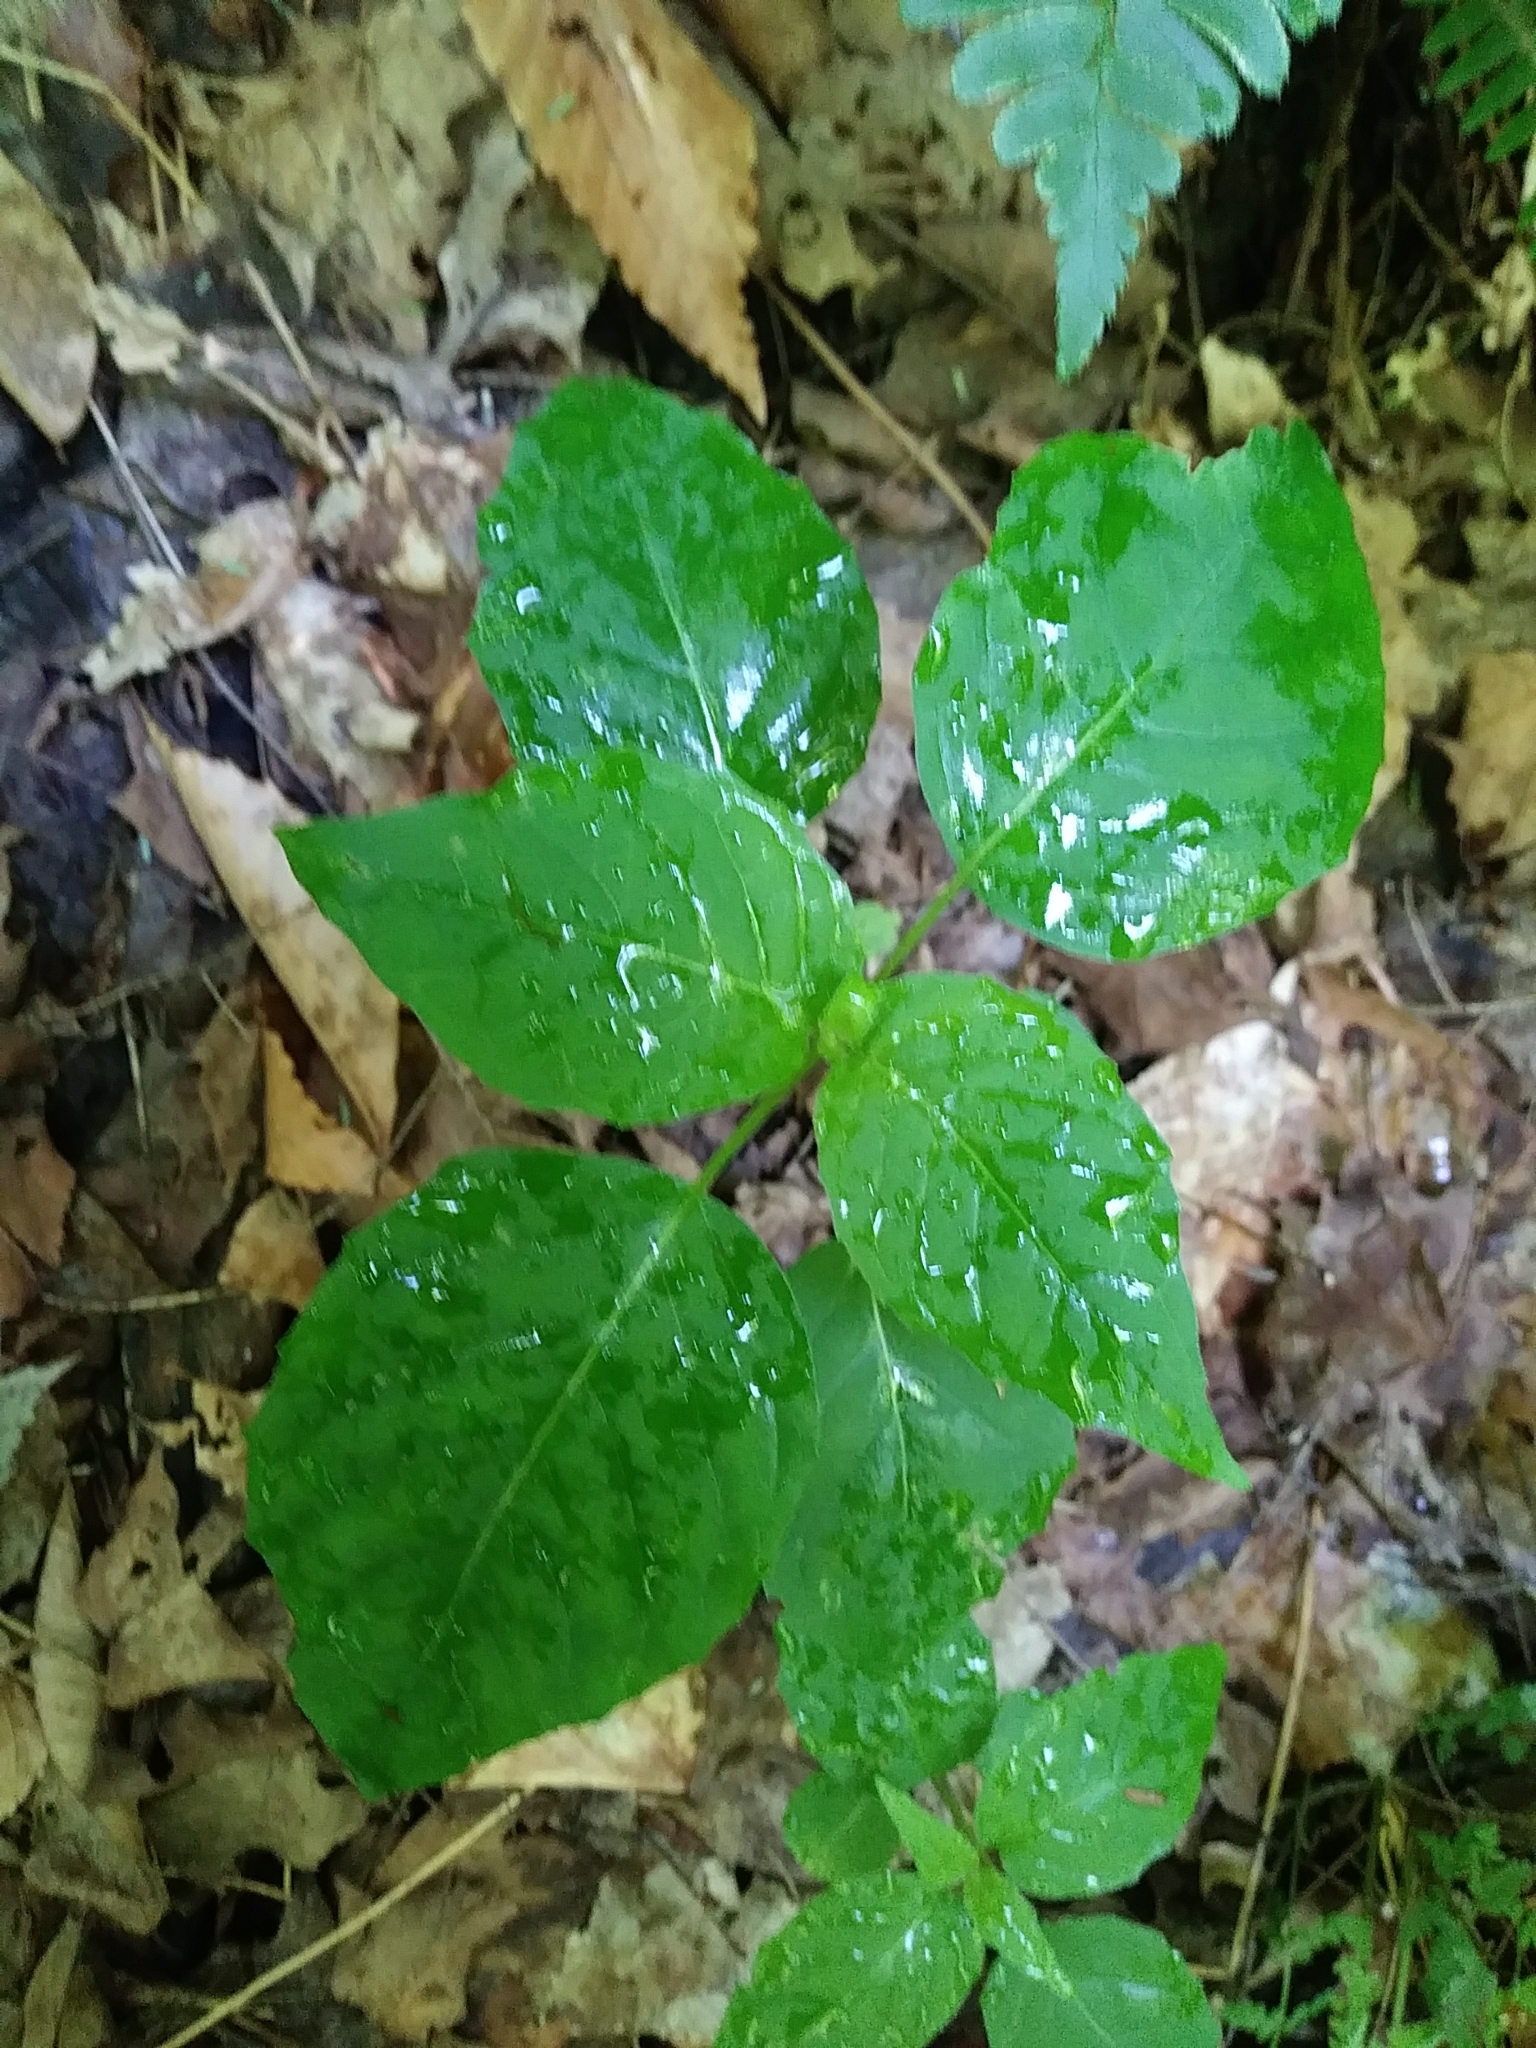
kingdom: Plantae
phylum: Tracheophyta
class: Magnoliopsida
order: Myrtales
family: Onagraceae
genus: Circaea
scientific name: Circaea canadensis
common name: Broad-leaved enchanter's nightshade
